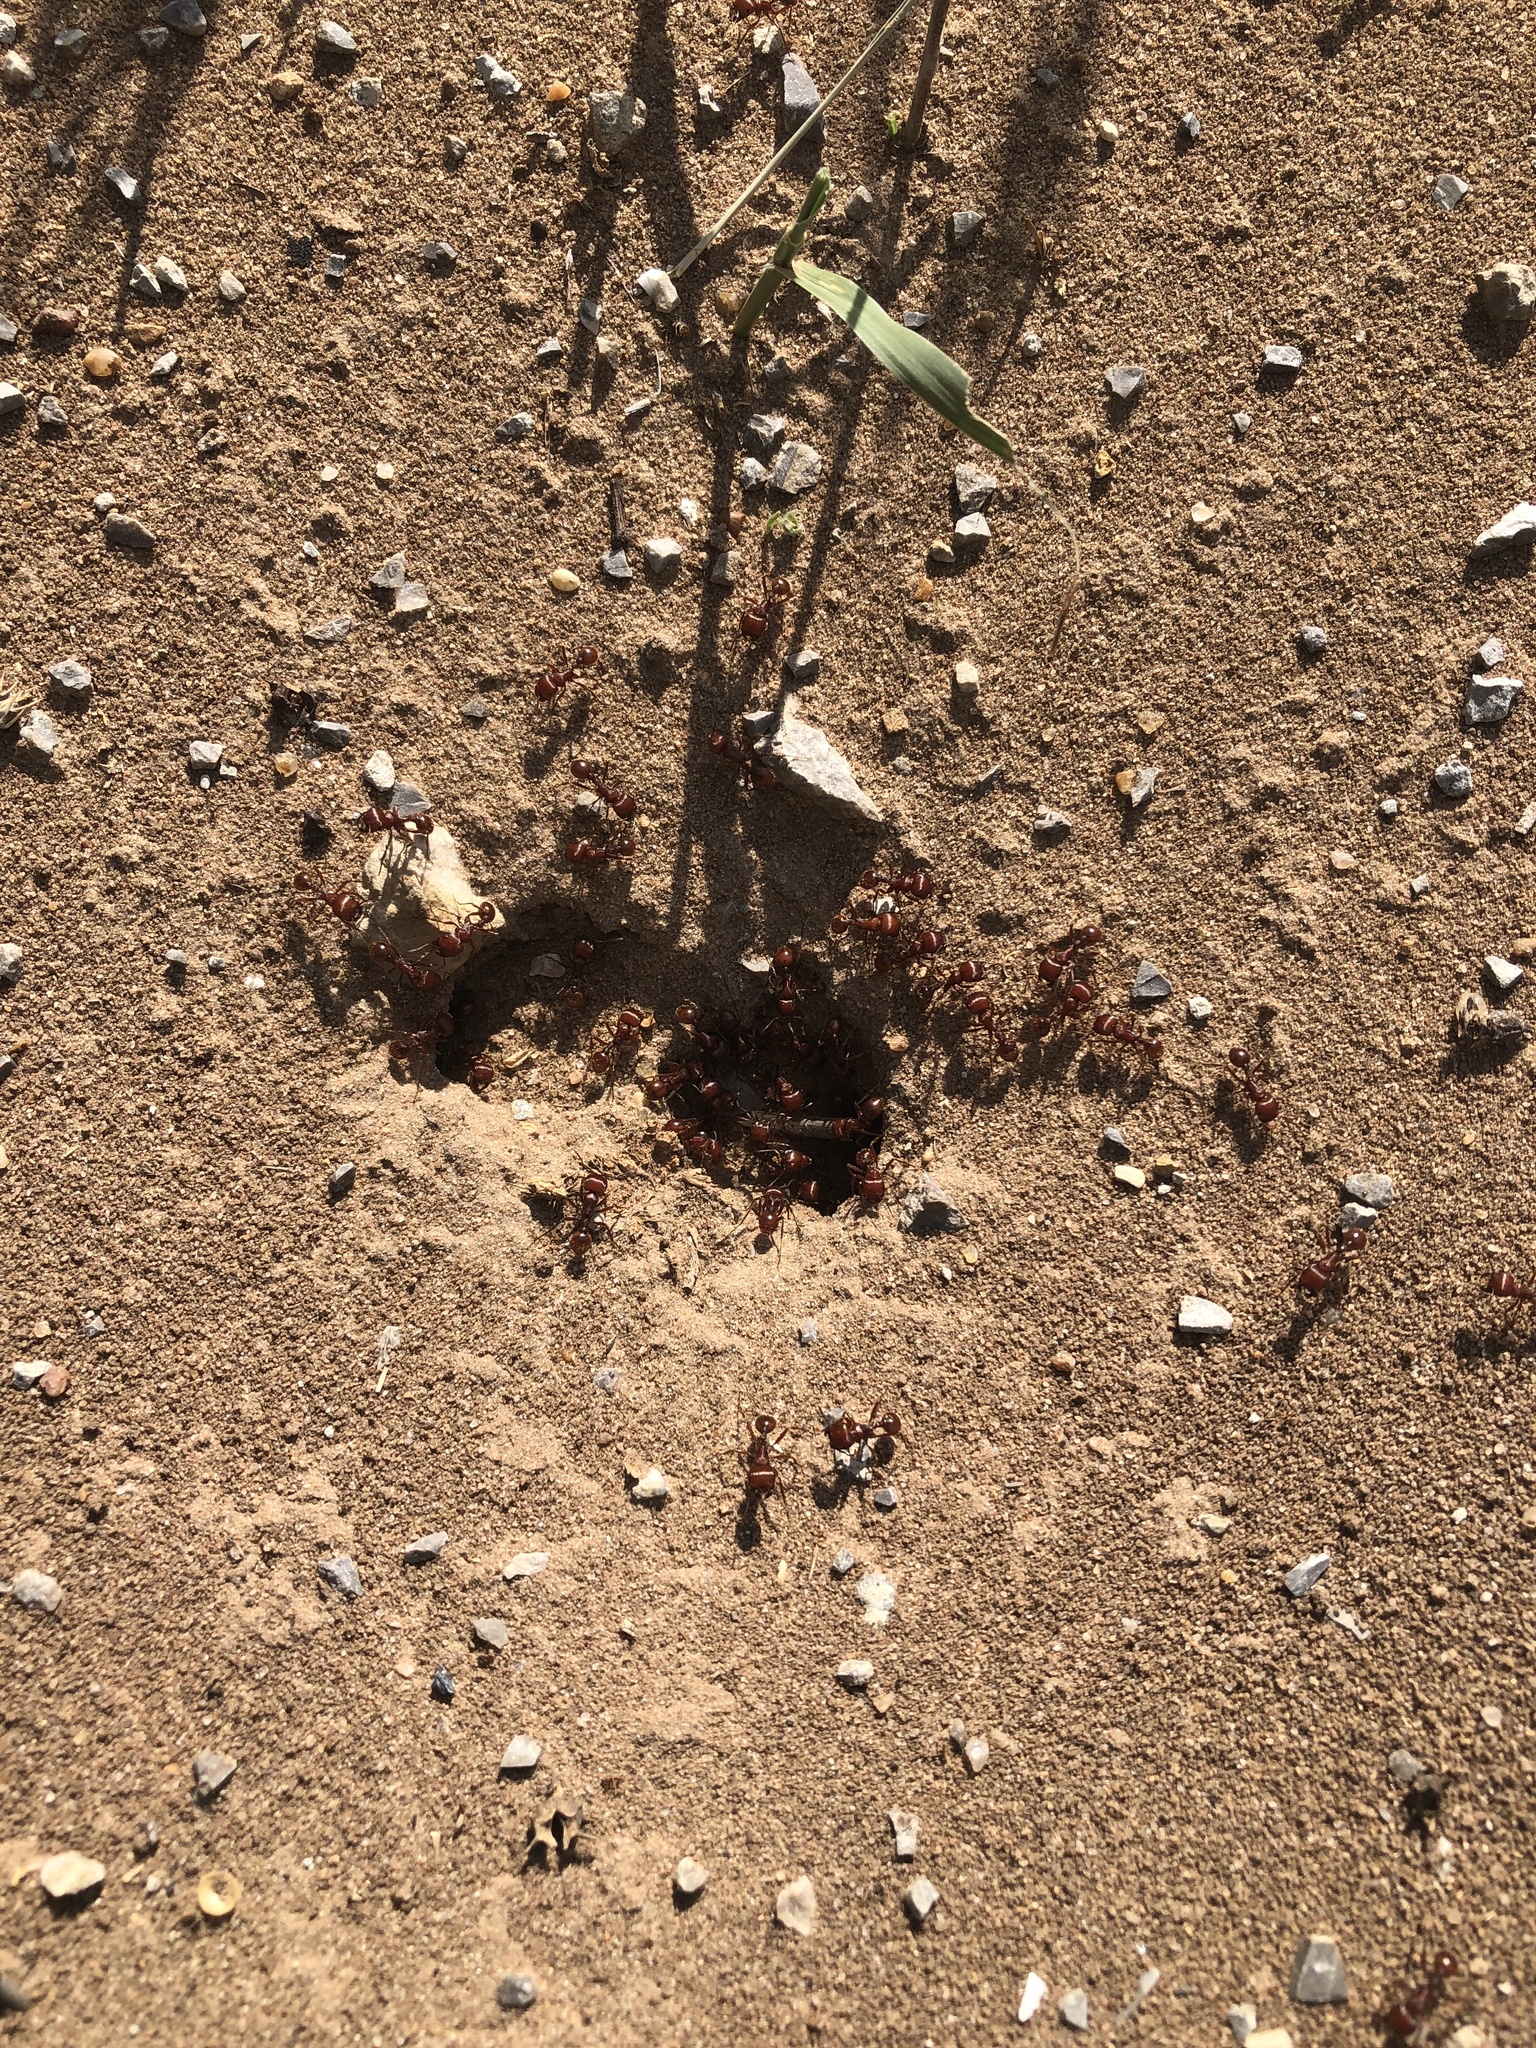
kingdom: Animalia
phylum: Arthropoda
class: Insecta
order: Hymenoptera
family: Formicidae
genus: Pogonomyrmex
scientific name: Pogonomyrmex barbatus
